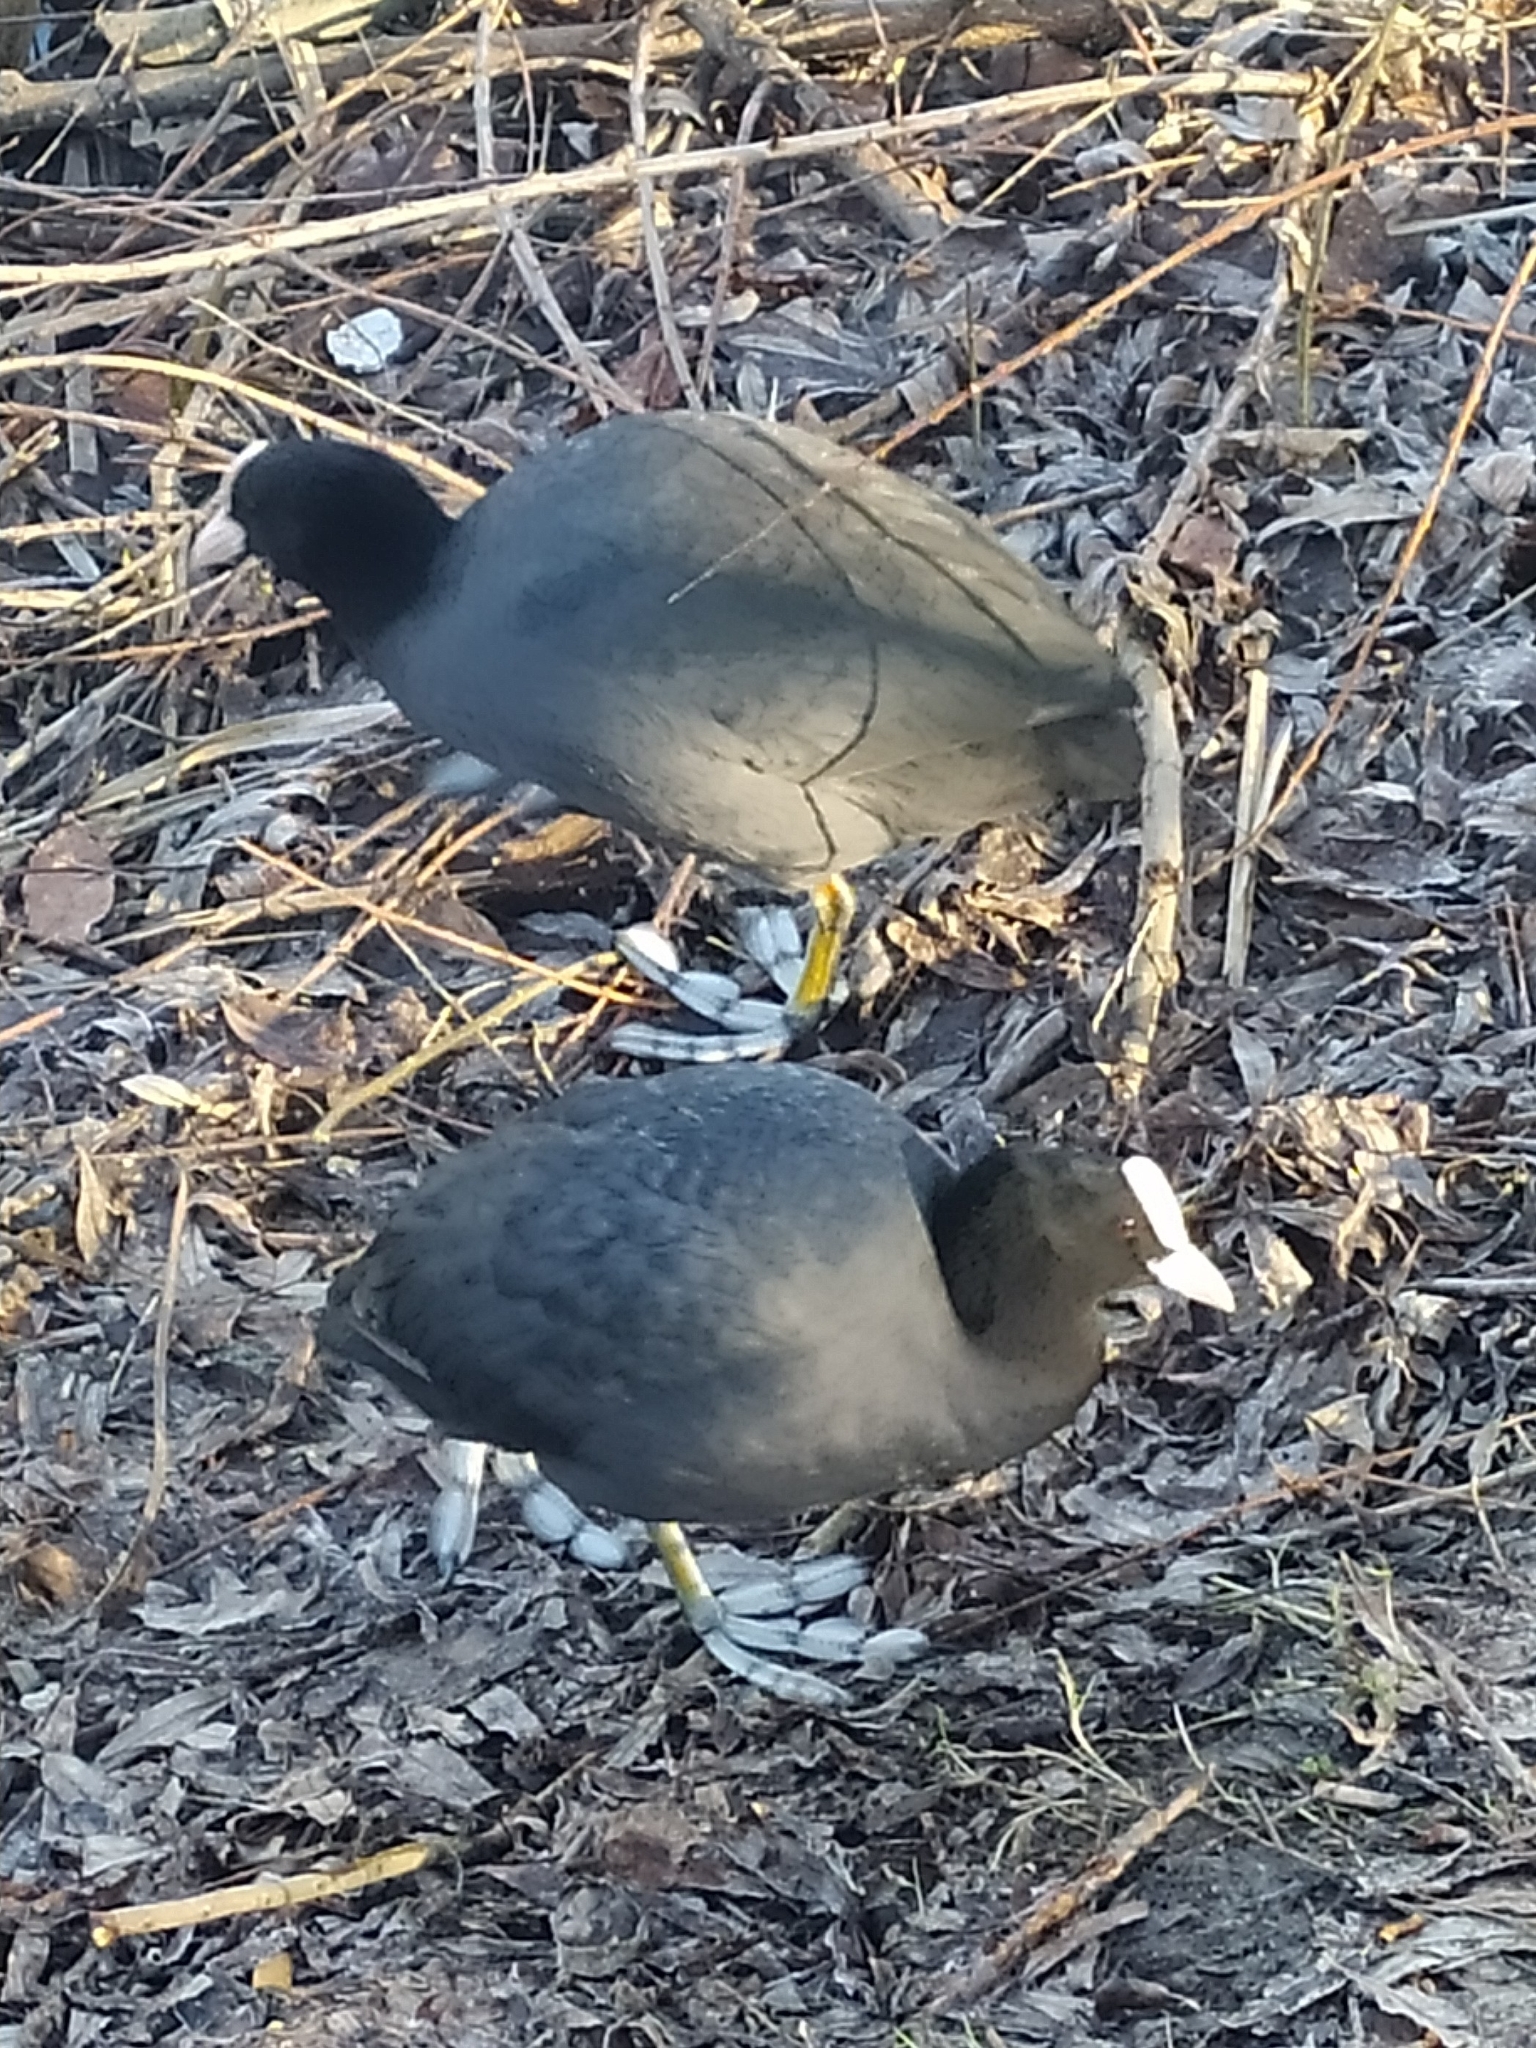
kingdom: Animalia
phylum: Chordata
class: Aves
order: Gruiformes
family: Rallidae
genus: Fulica
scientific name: Fulica atra
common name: Eurasian coot
